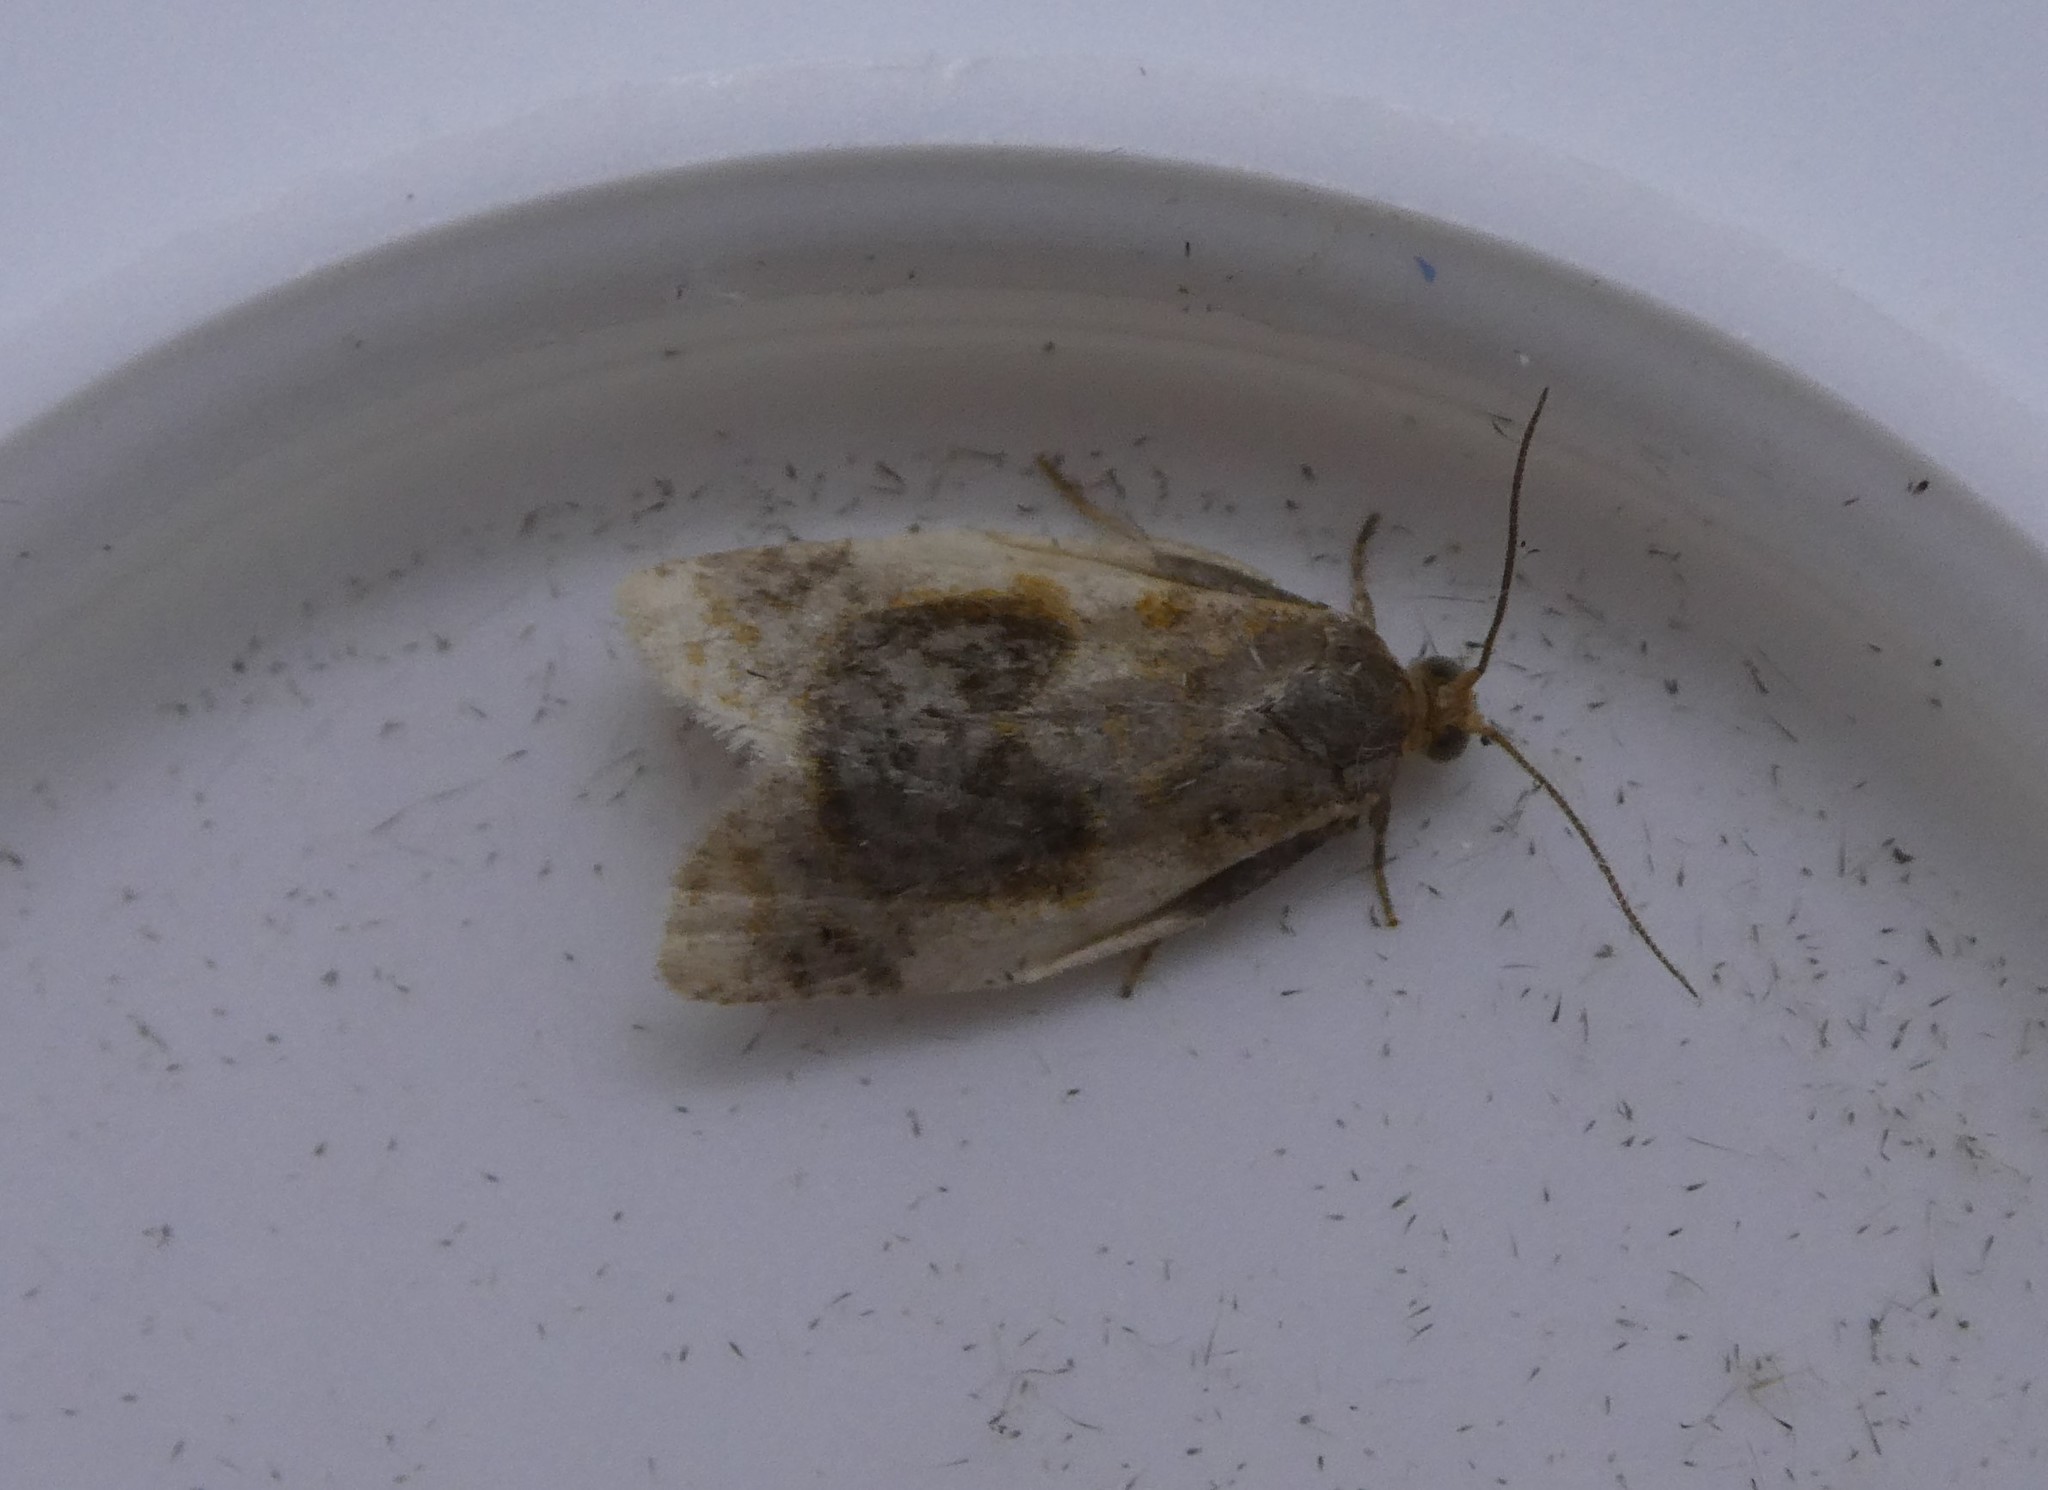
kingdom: Animalia
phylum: Arthropoda
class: Insecta
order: Lepidoptera
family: Tortricidae
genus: Clepsis
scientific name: Clepsis melaleucanus
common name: American apple tortrix
